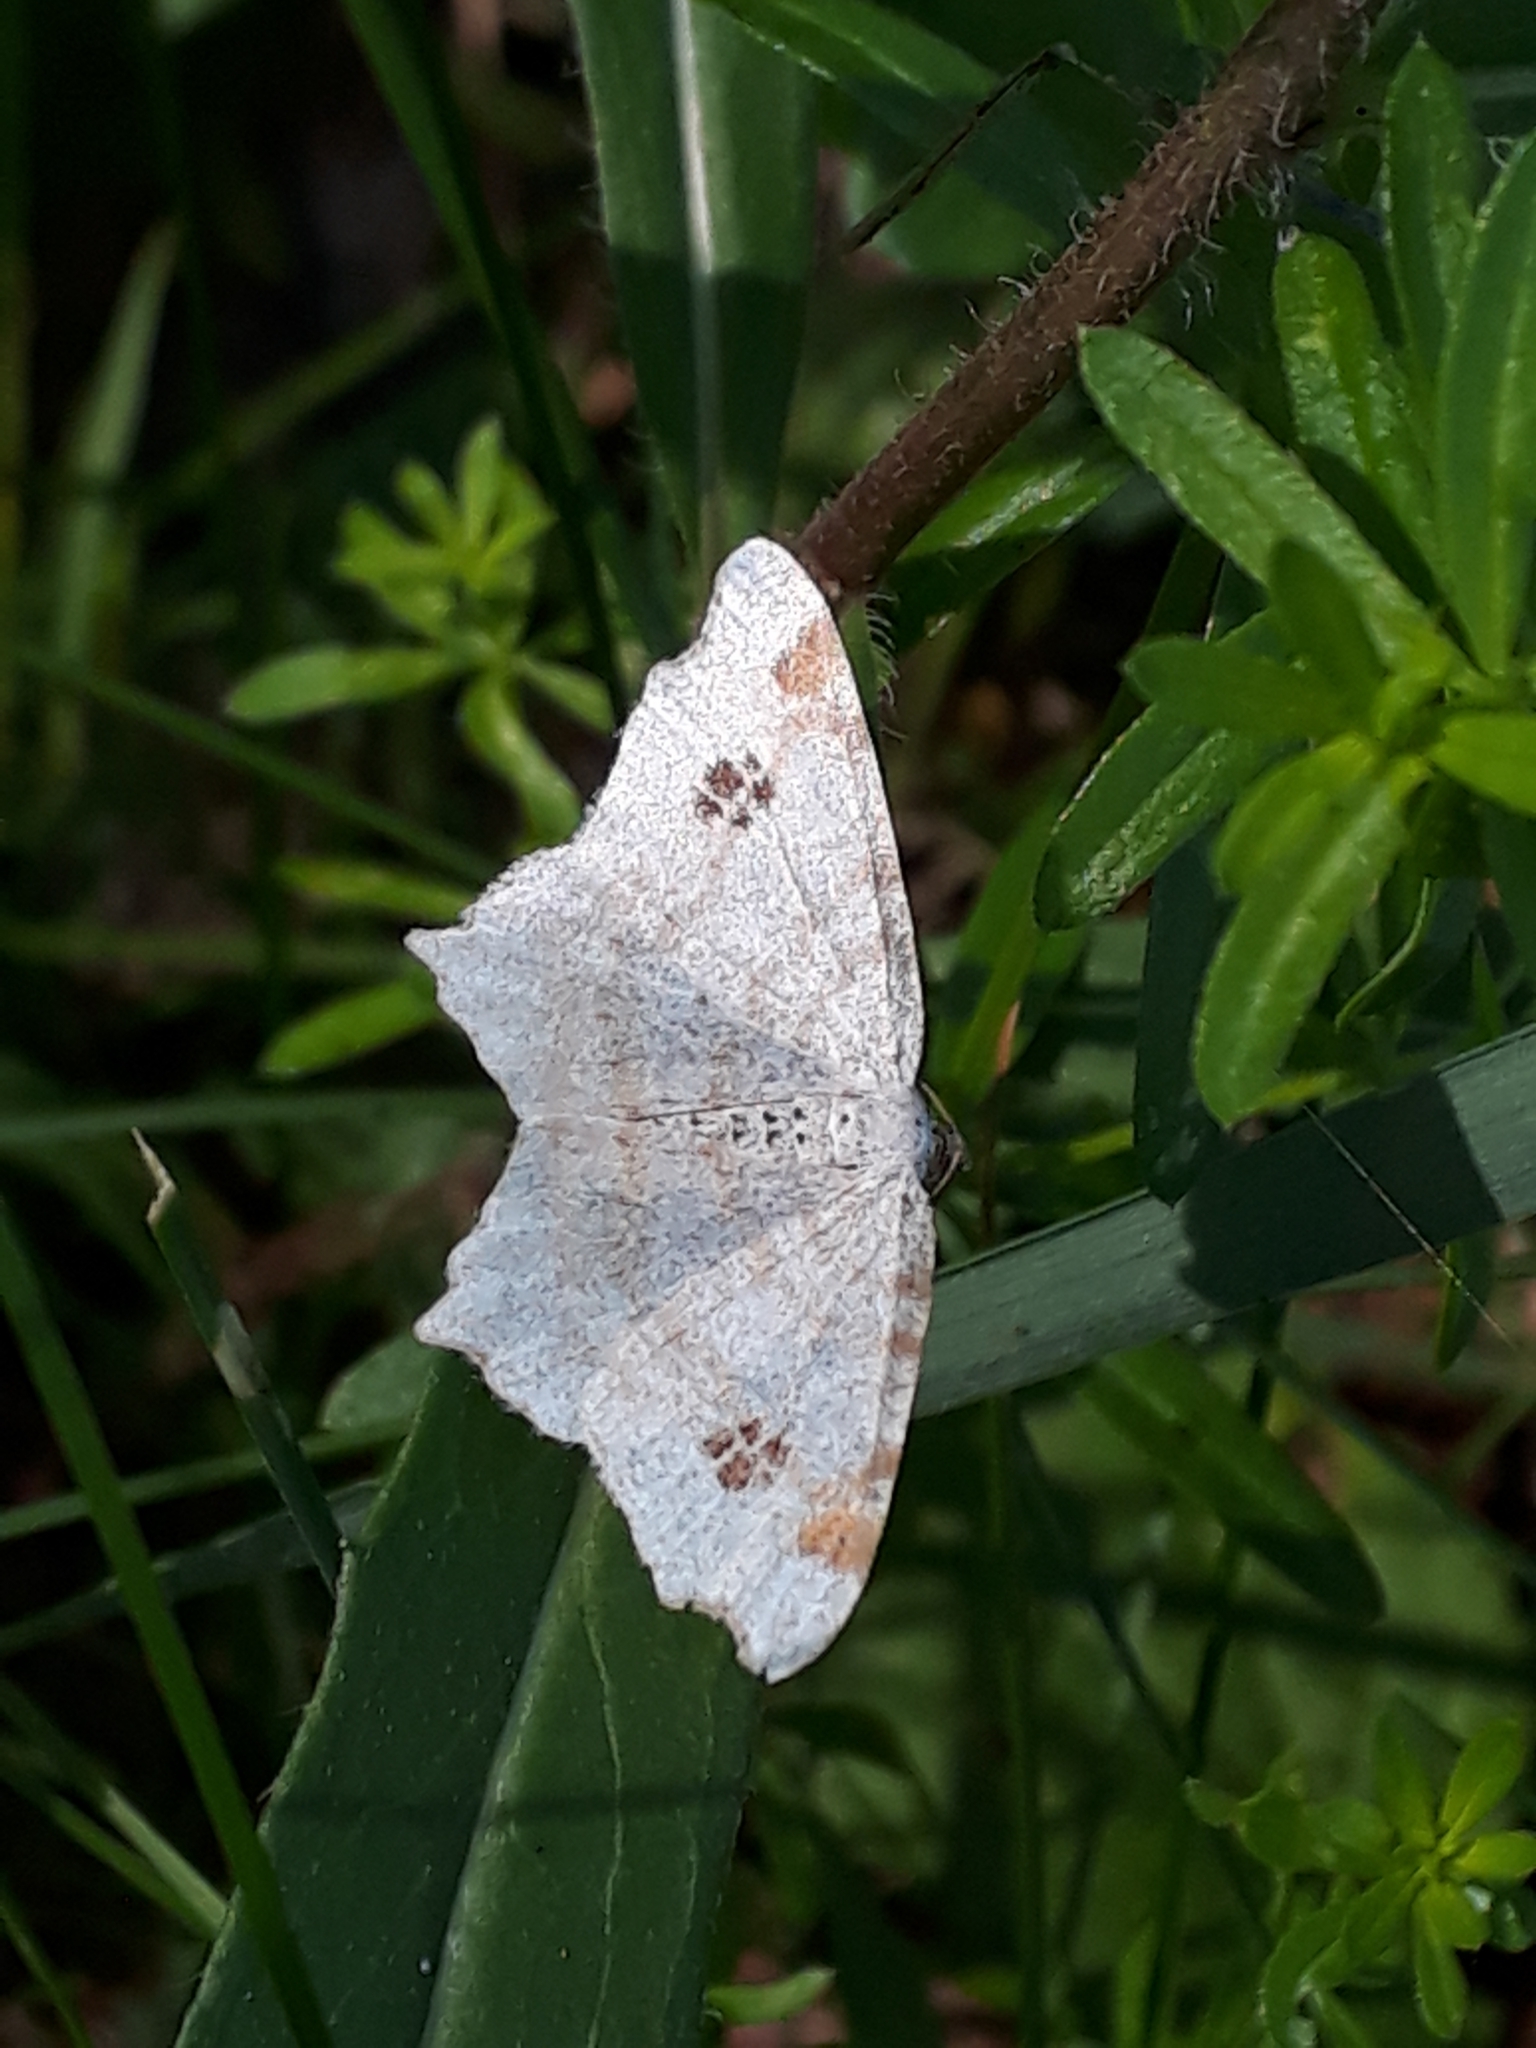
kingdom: Animalia
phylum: Arthropoda
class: Insecta
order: Lepidoptera
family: Geometridae
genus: Macaria
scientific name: Macaria notata
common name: Peacock moth
